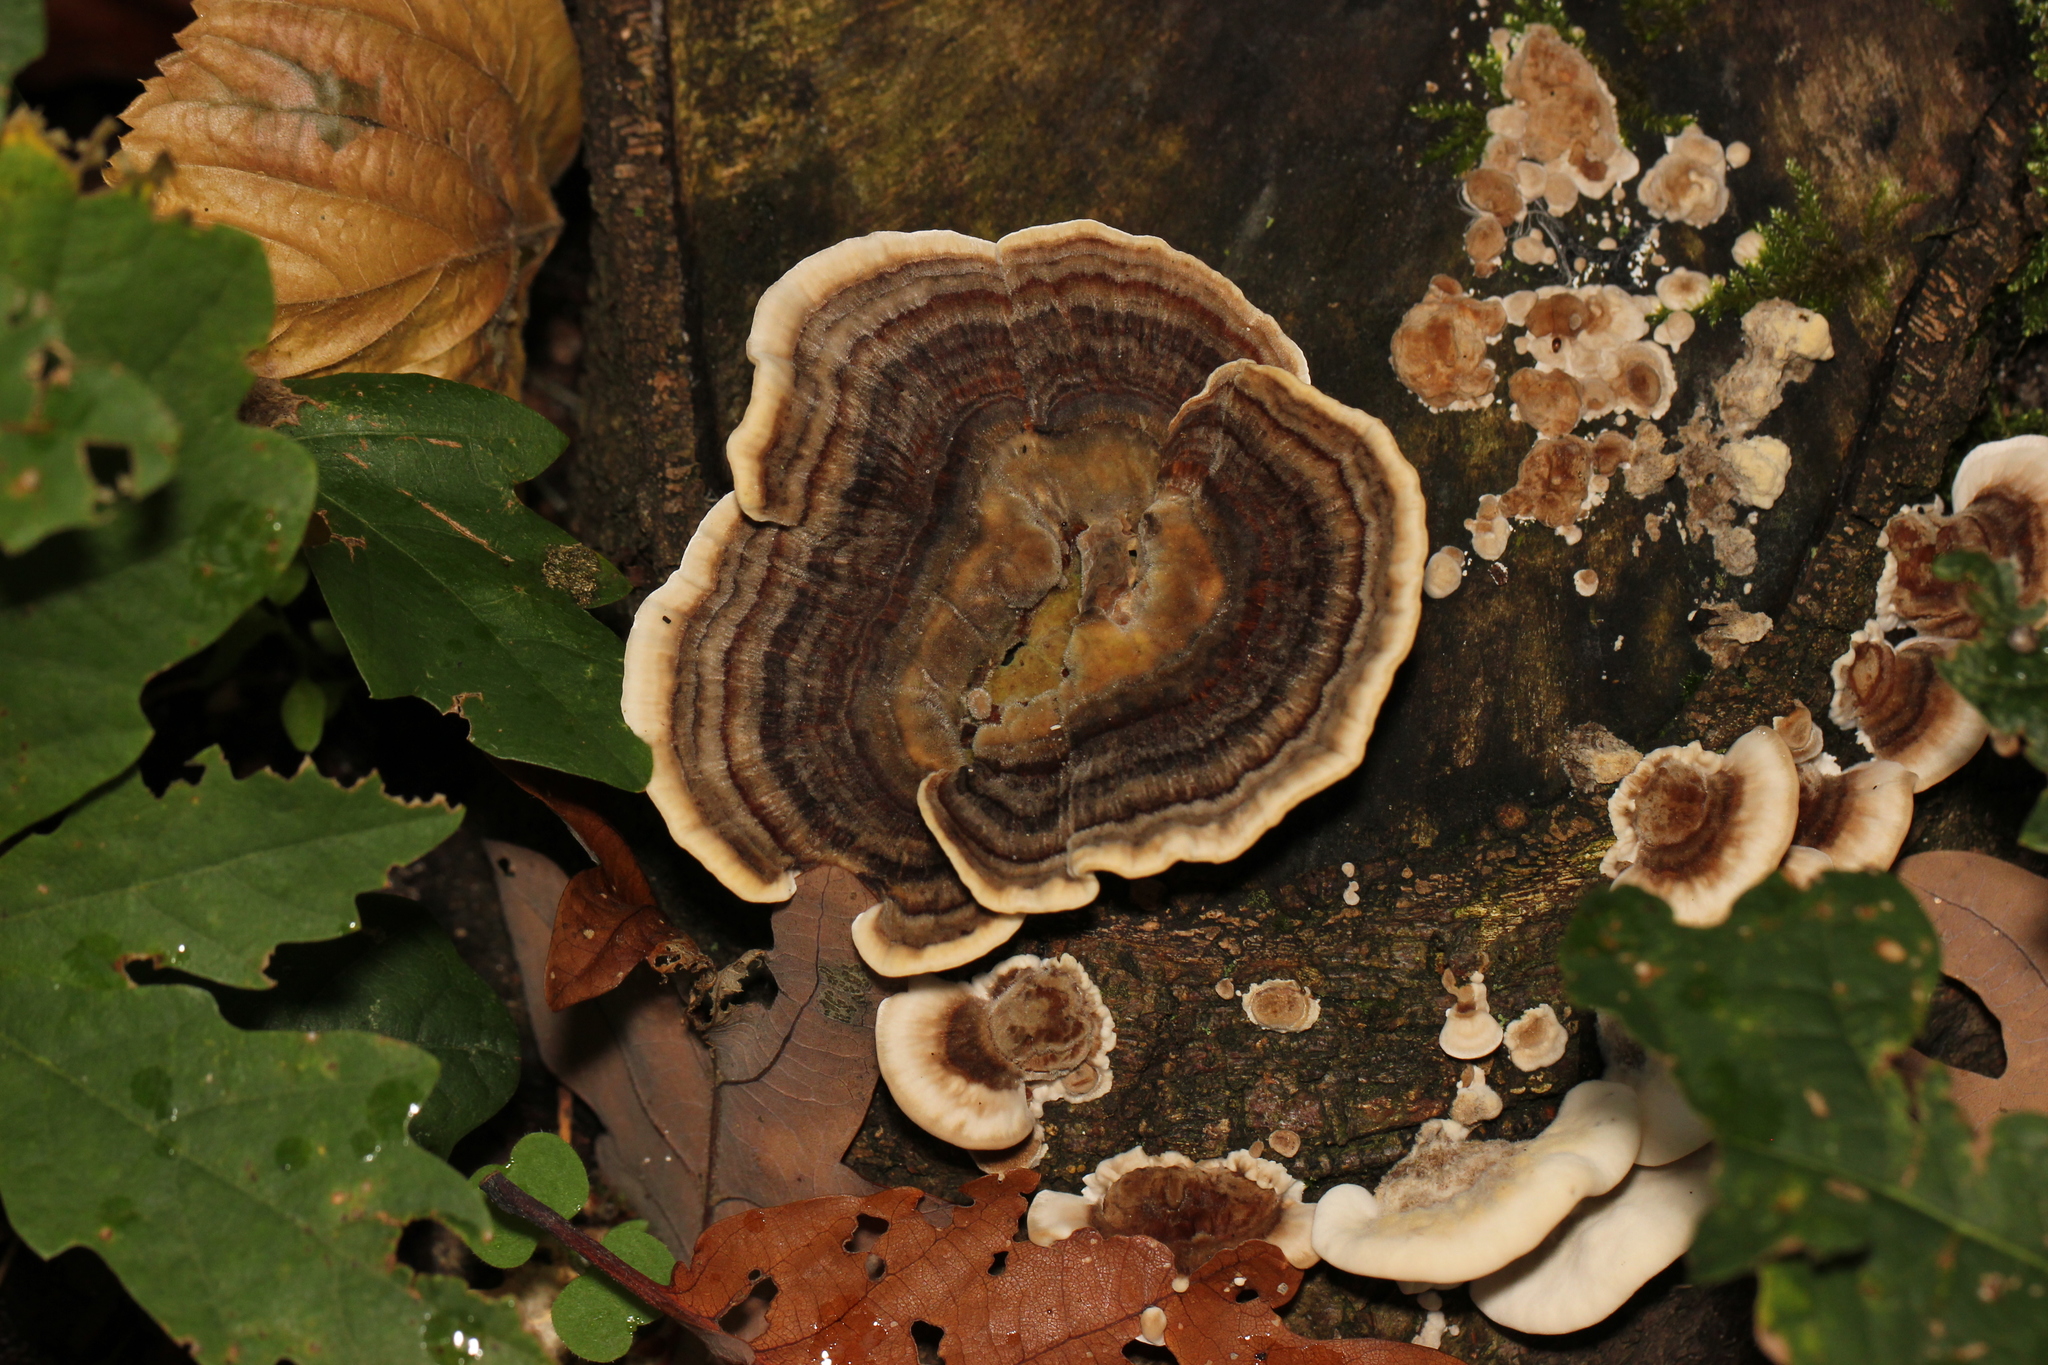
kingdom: Fungi
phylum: Basidiomycota
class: Agaricomycetes
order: Polyporales
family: Polyporaceae
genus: Trametes
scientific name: Trametes versicolor
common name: Turkeytail
